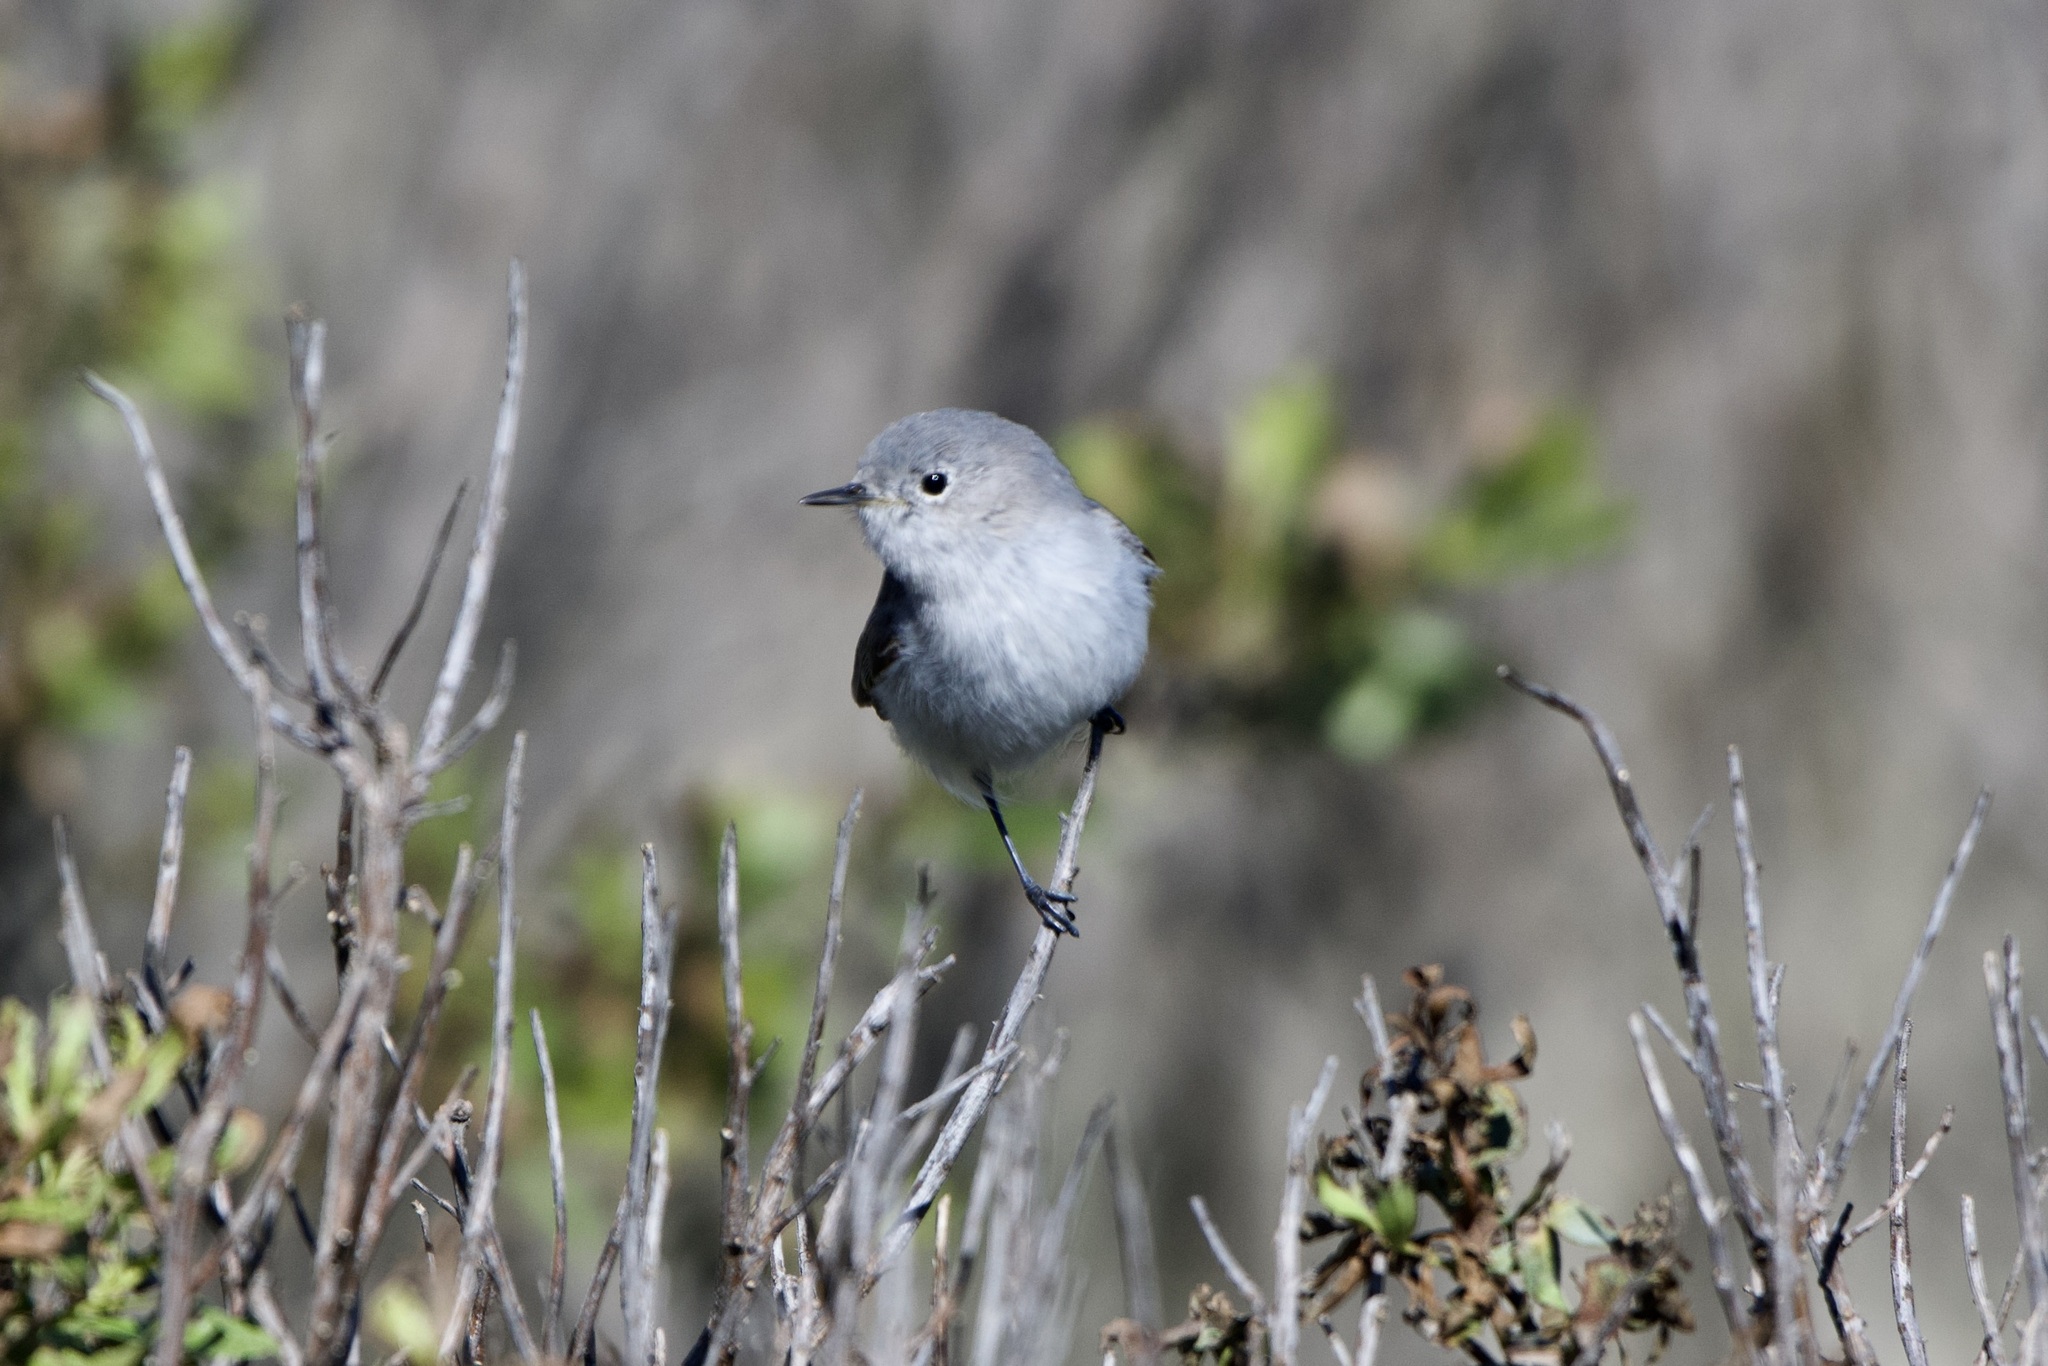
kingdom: Animalia
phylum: Chordata
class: Aves
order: Passeriformes
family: Polioptilidae
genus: Polioptila
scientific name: Polioptila caerulea
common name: Blue-gray gnatcatcher
